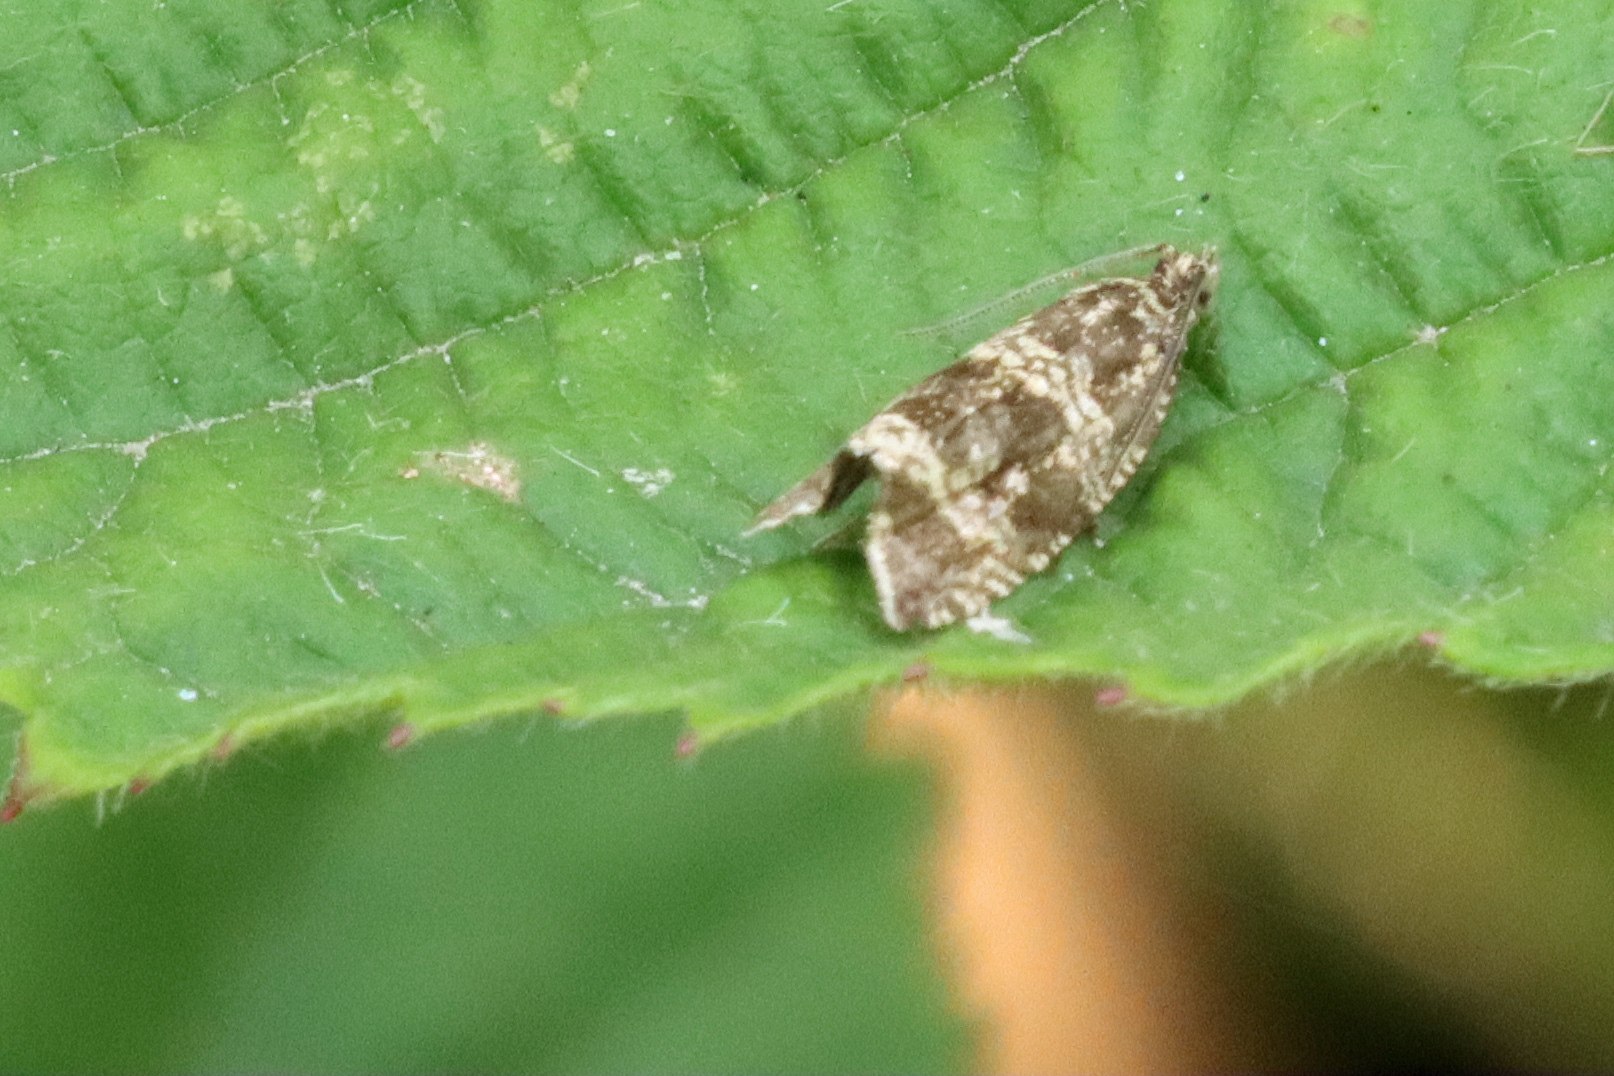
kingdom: Animalia
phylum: Arthropoda
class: Insecta
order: Lepidoptera
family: Tortricidae
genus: Syricoris
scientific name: Syricoris lacunana
